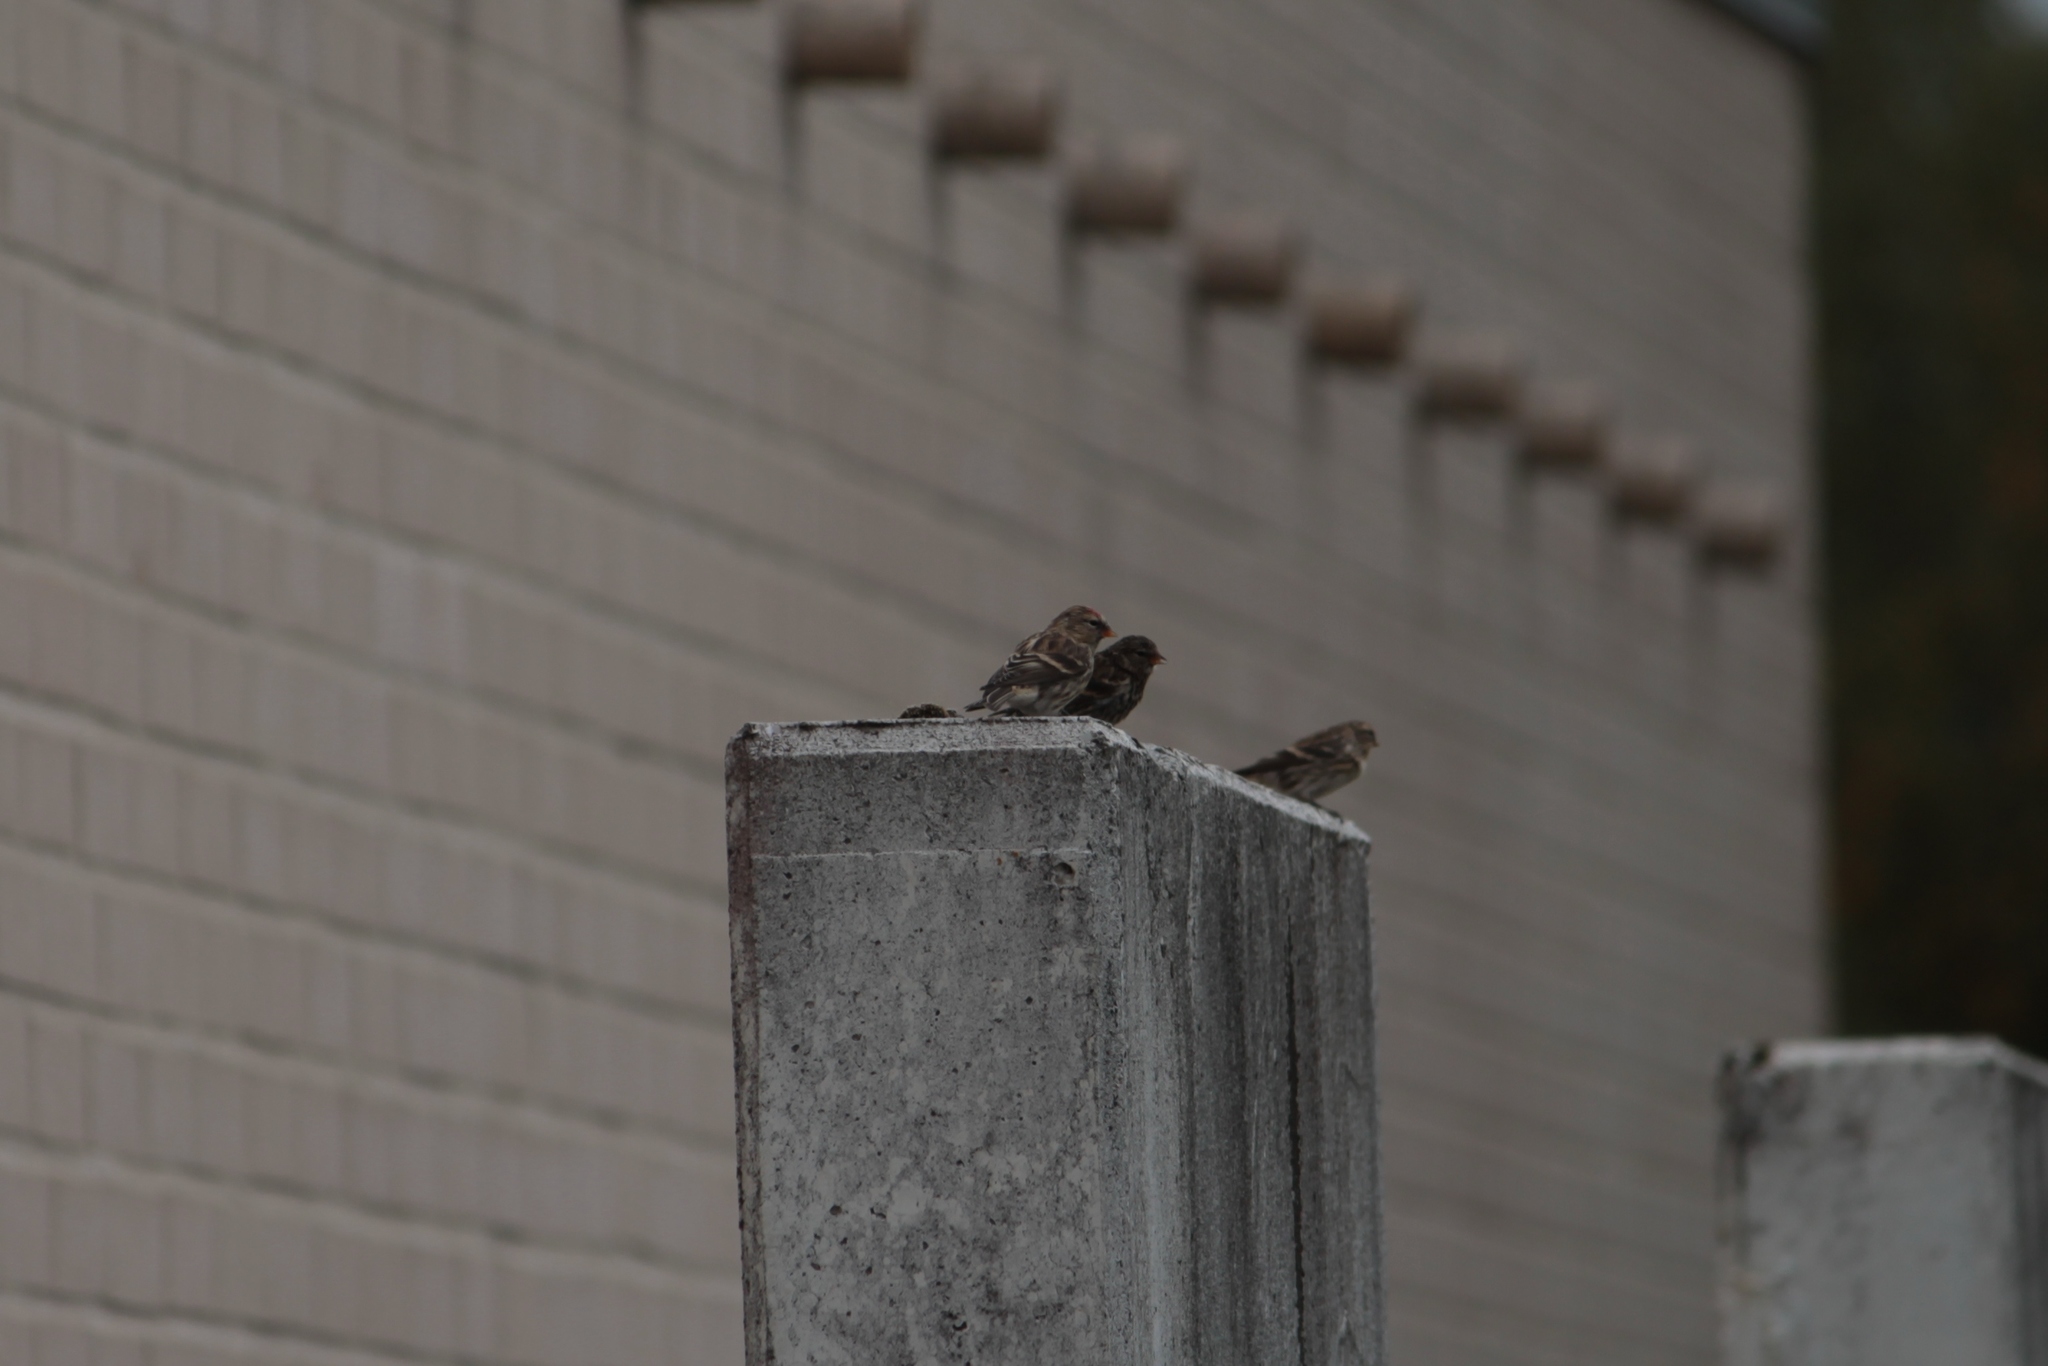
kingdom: Animalia
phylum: Chordata
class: Aves
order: Passeriformes
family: Fringillidae
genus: Acanthis
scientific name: Acanthis flammea
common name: Common redpoll
